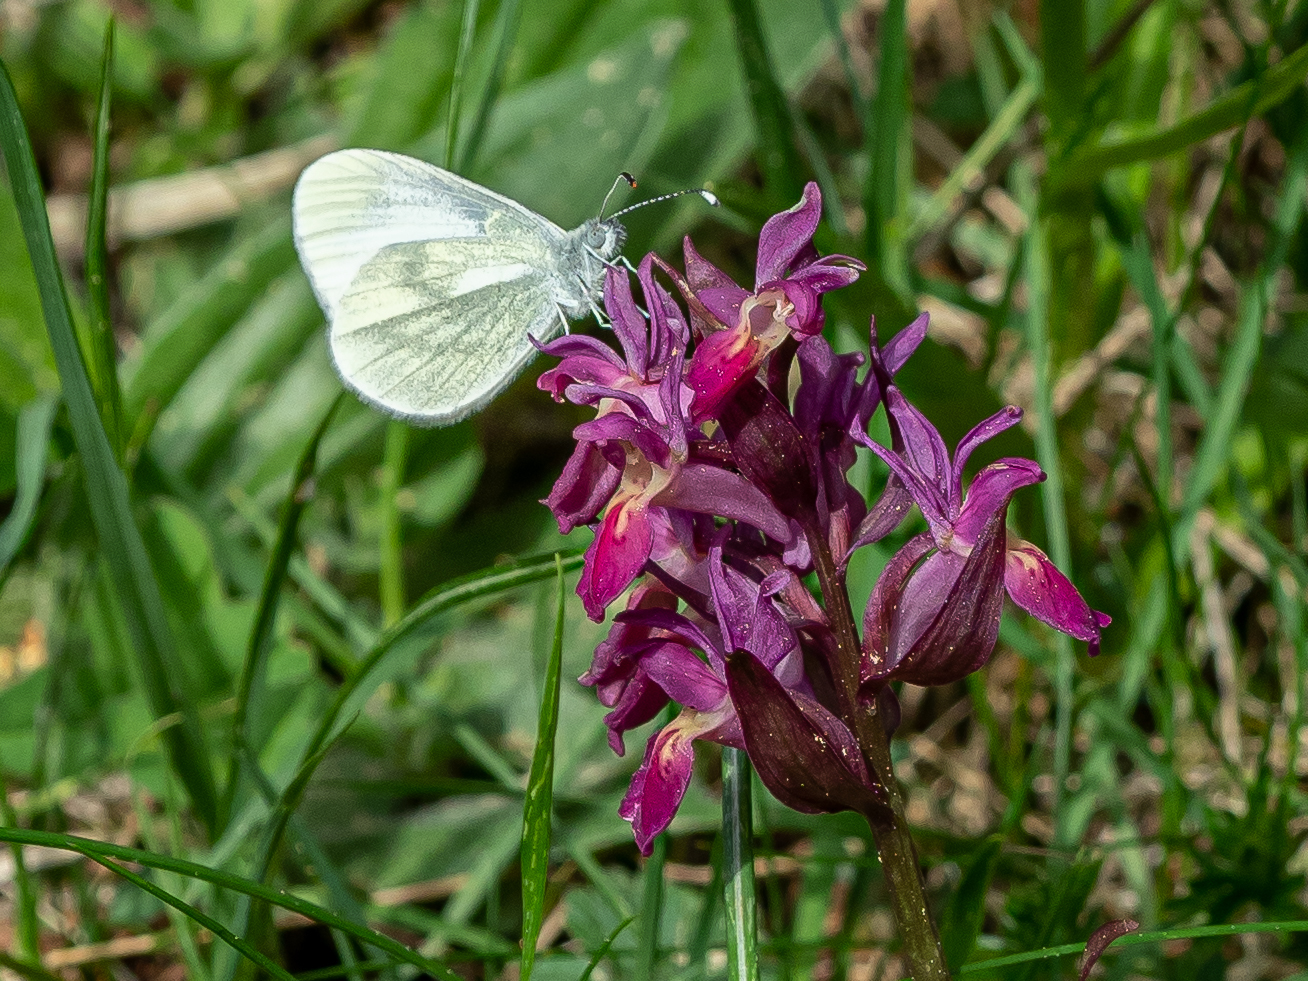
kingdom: Animalia
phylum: Arthropoda
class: Insecta
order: Lepidoptera
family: Pieridae
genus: Leptidea
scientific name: Leptidea
